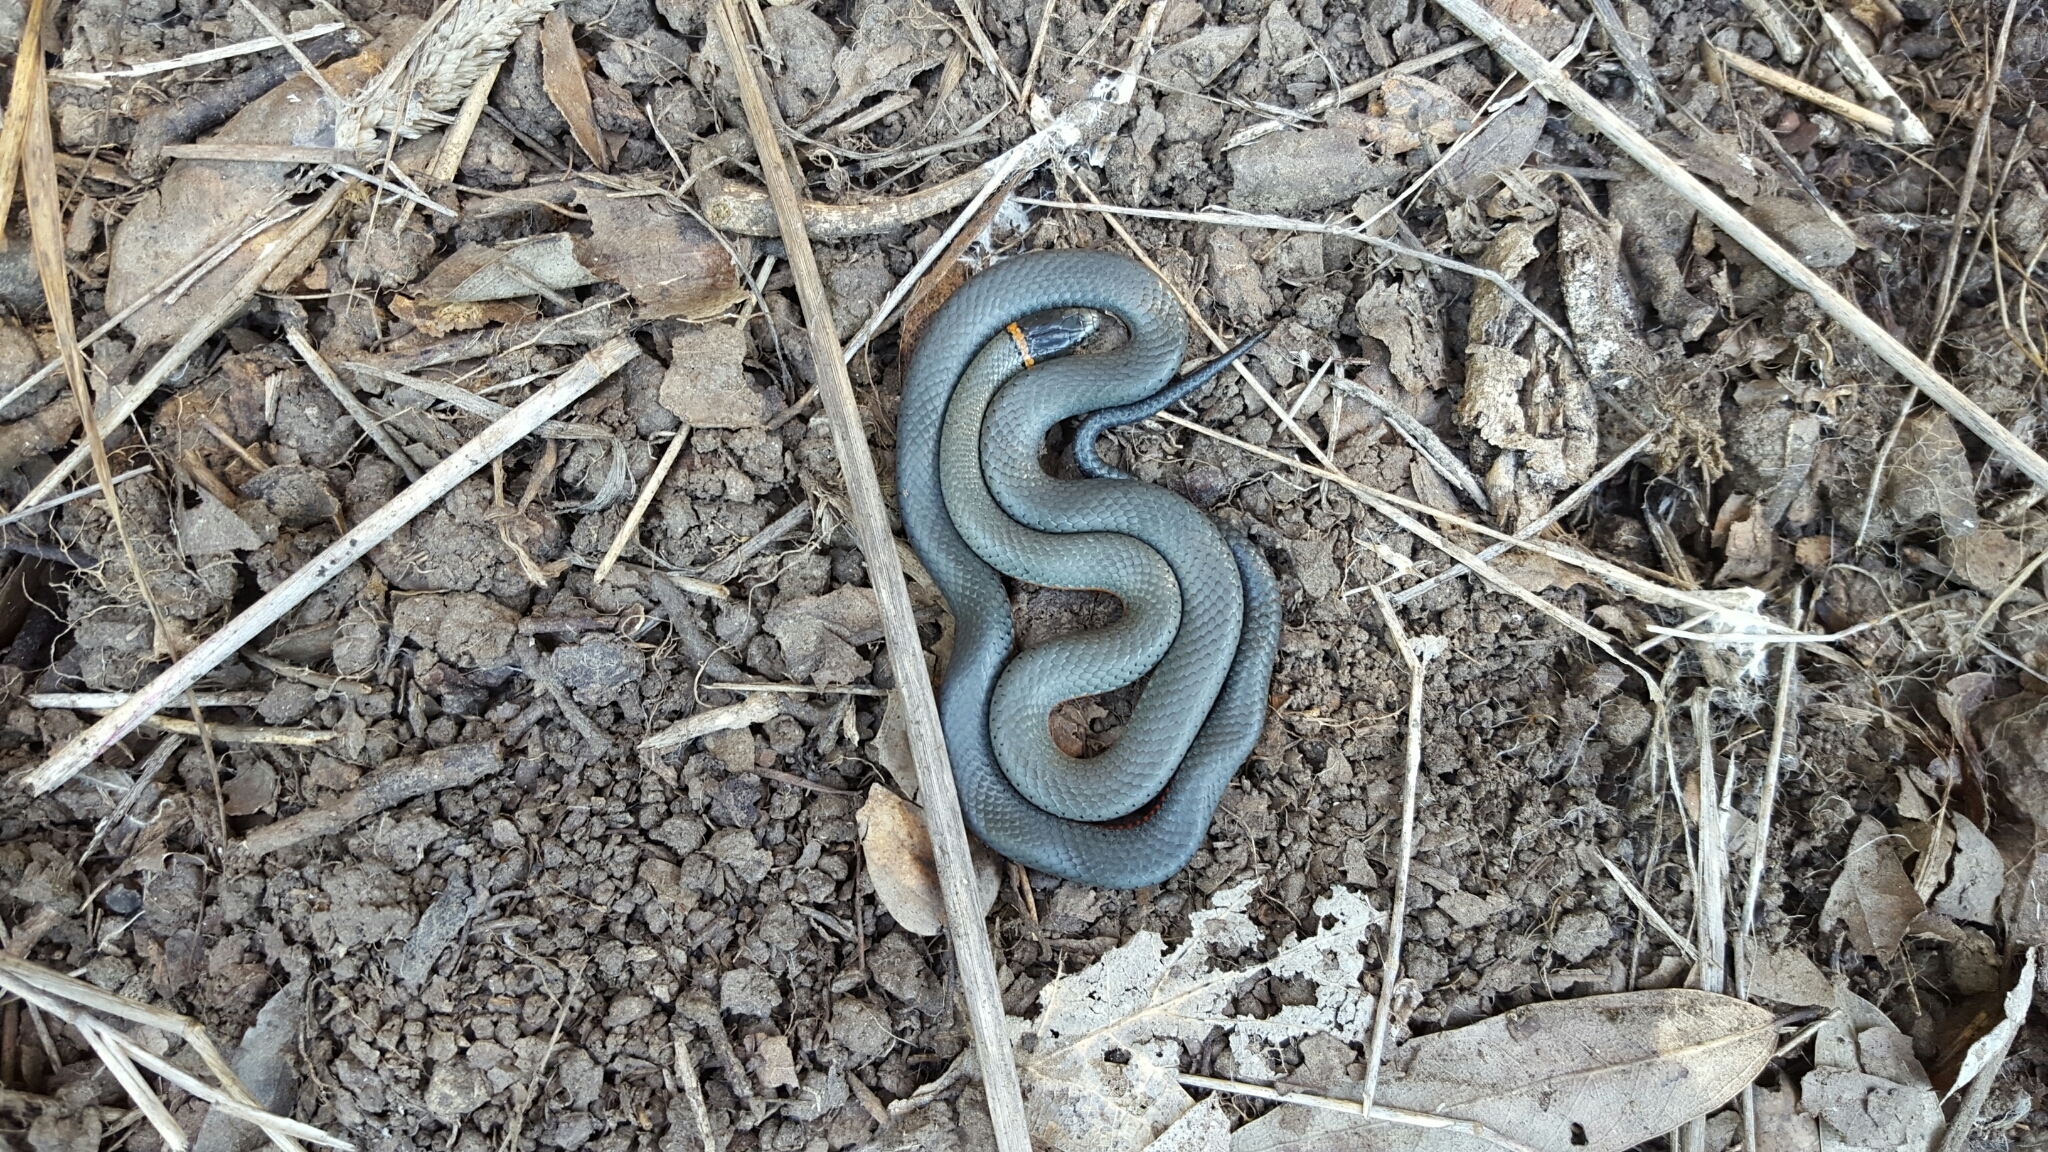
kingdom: Animalia
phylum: Chordata
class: Squamata
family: Colubridae
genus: Diadophis
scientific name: Diadophis punctatus
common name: Ringneck snake
